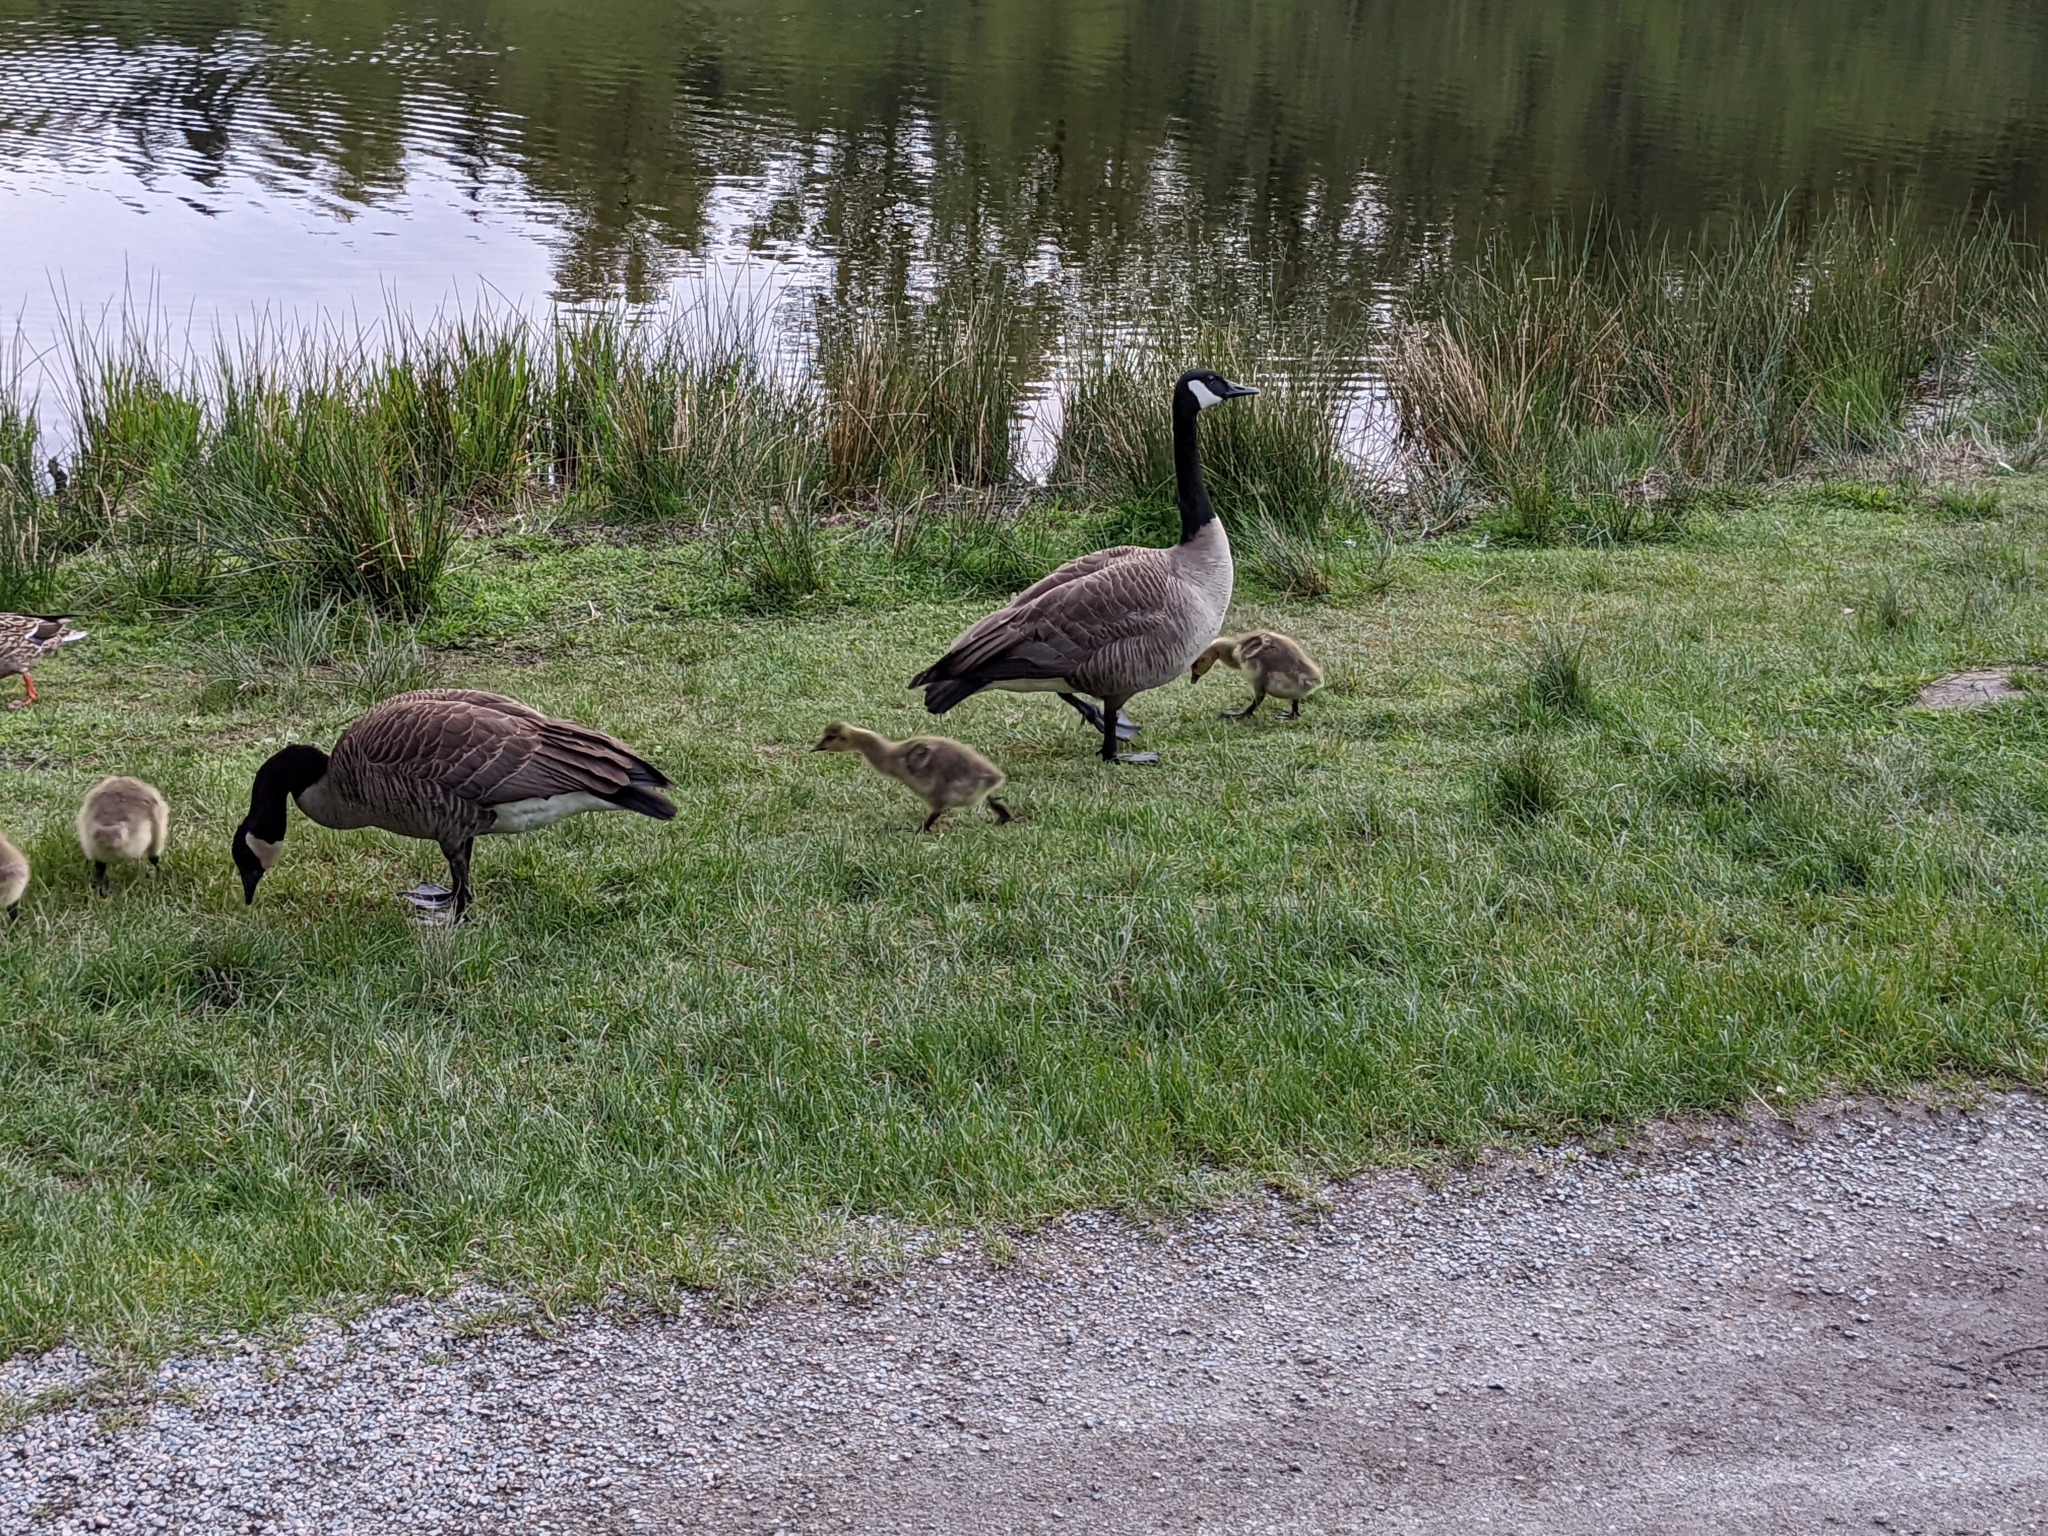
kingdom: Animalia
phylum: Chordata
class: Aves
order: Anseriformes
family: Anatidae
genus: Branta
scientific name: Branta canadensis
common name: Canada goose
